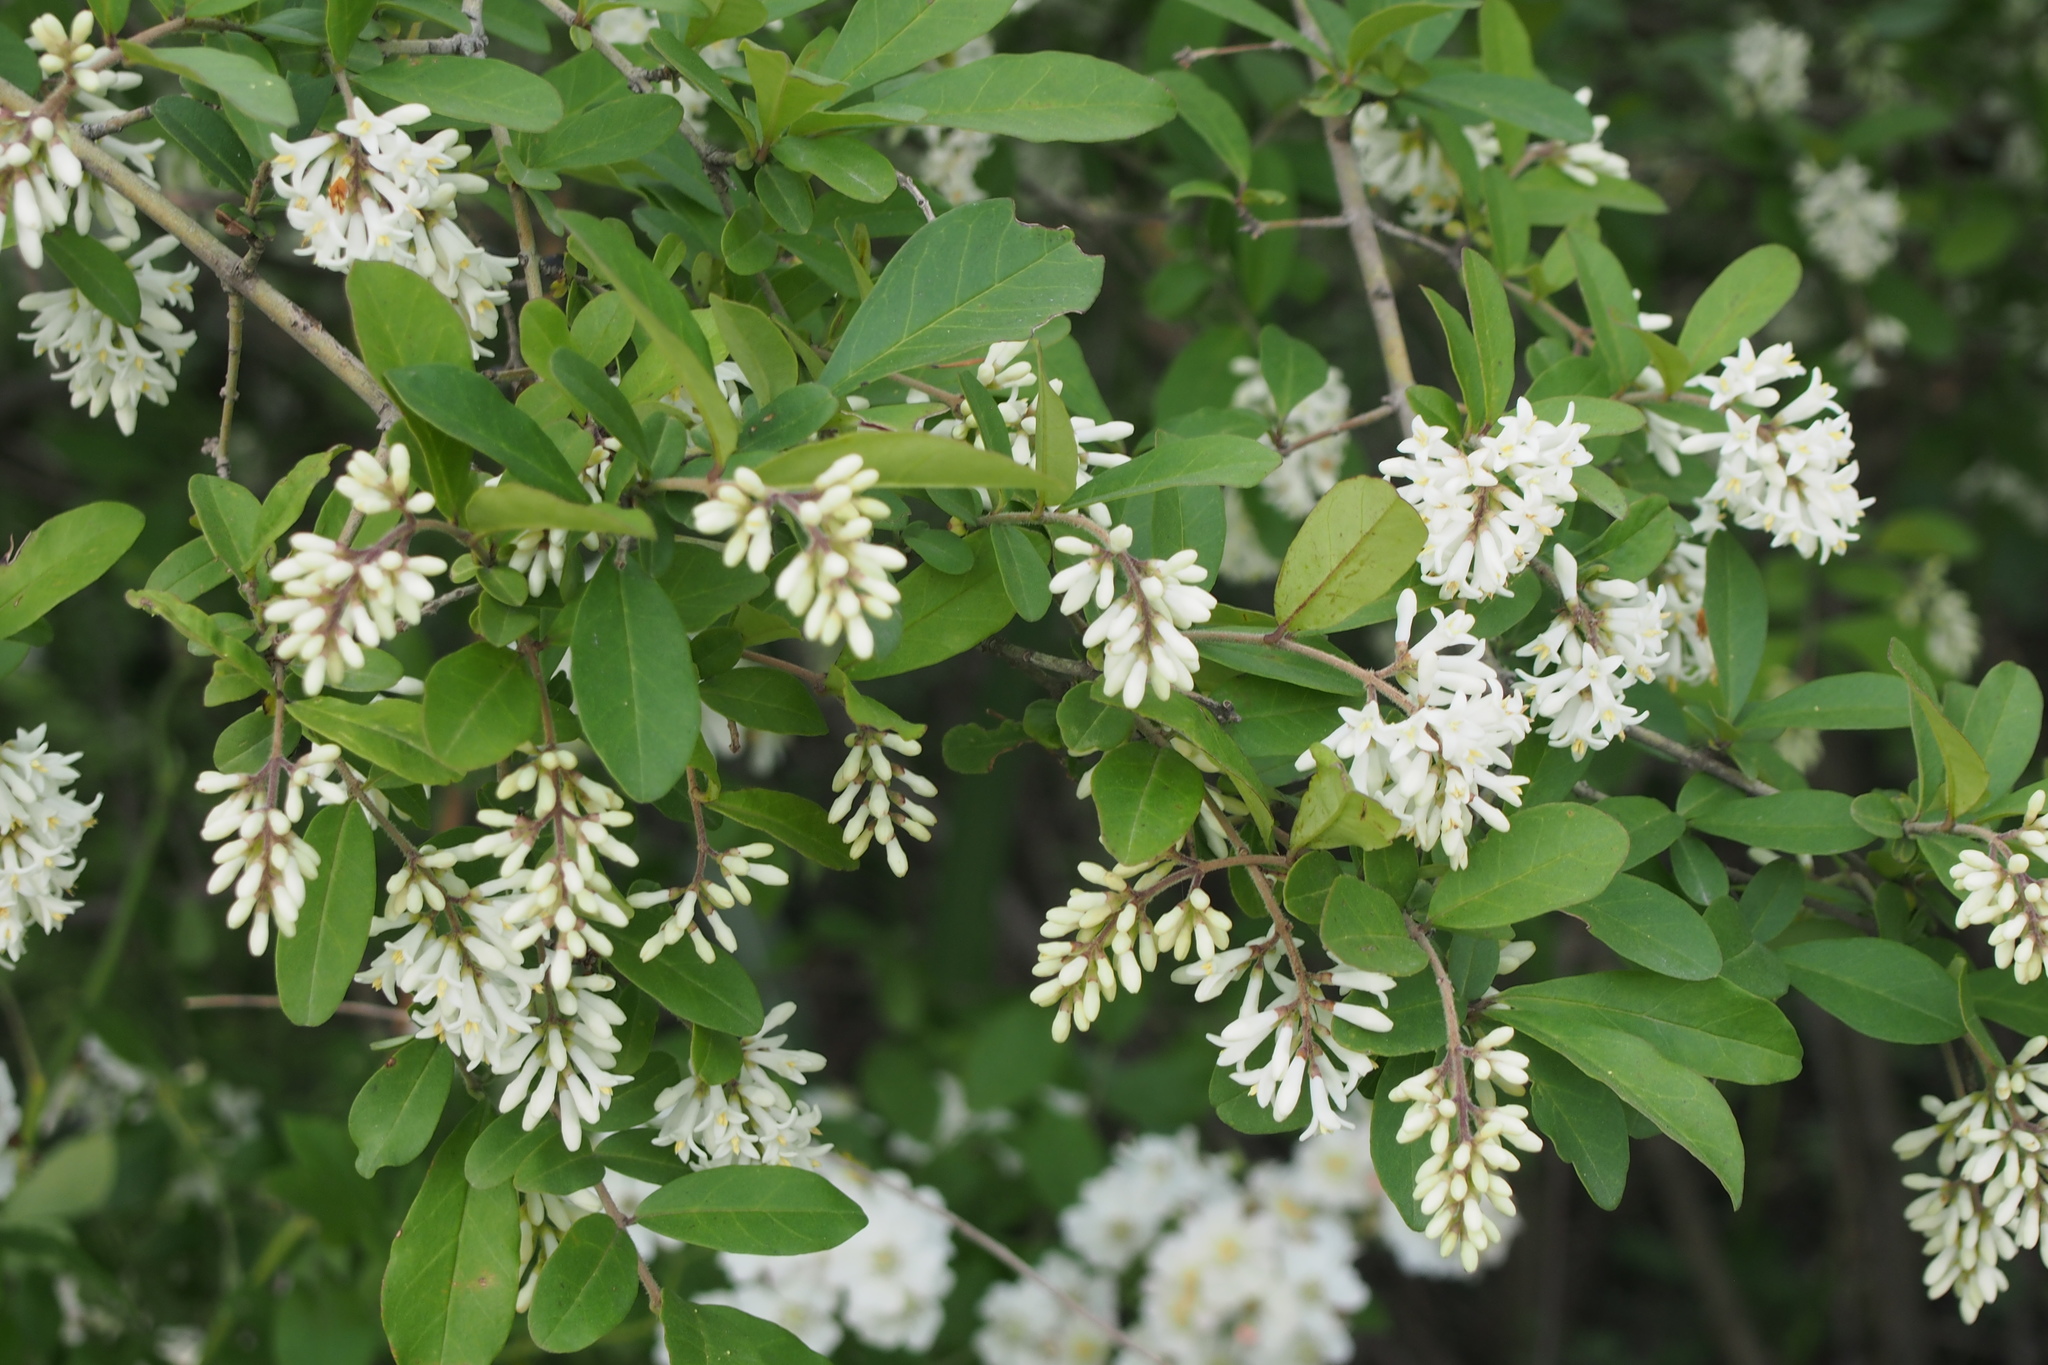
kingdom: Plantae
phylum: Tracheophyta
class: Magnoliopsida
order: Lamiales
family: Oleaceae
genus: Ligustrum
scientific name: Ligustrum obtusifolium
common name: Border privet
